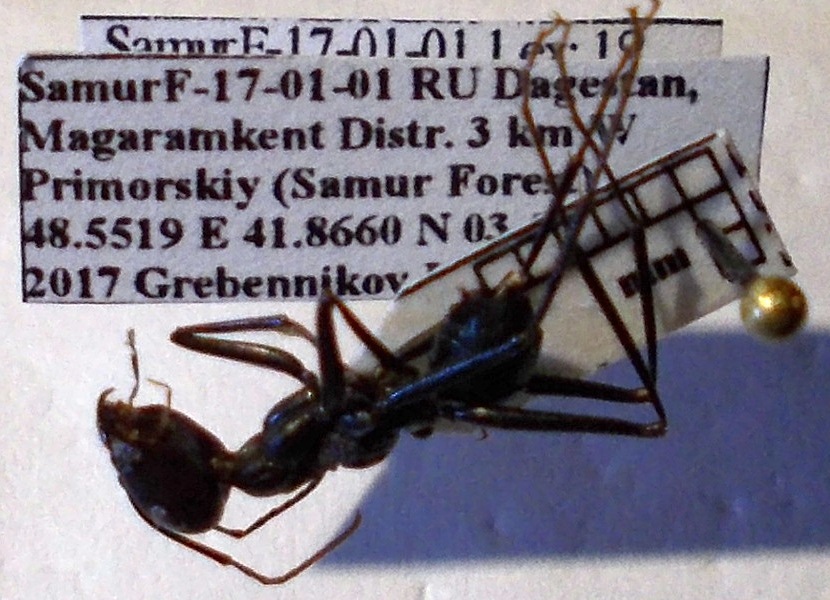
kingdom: Animalia
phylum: Arthropoda
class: Insecta
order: Hymenoptera
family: Formicidae
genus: Cataglyphis
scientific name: Cataglyphis nodus
